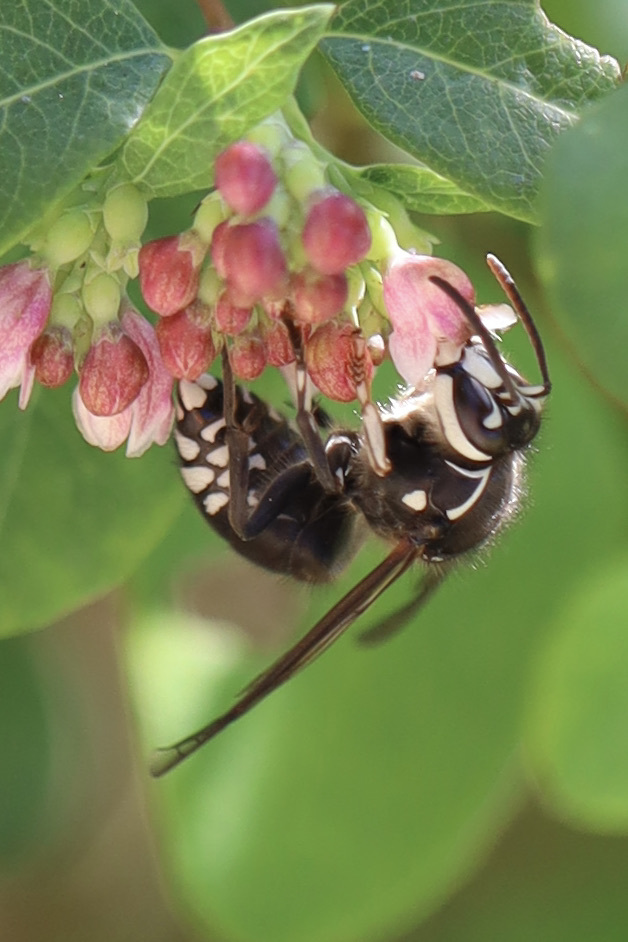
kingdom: Animalia
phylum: Arthropoda
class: Insecta
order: Hymenoptera
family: Vespidae
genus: Dolichovespula
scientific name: Dolichovespula maculata
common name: Bald-faced hornet
